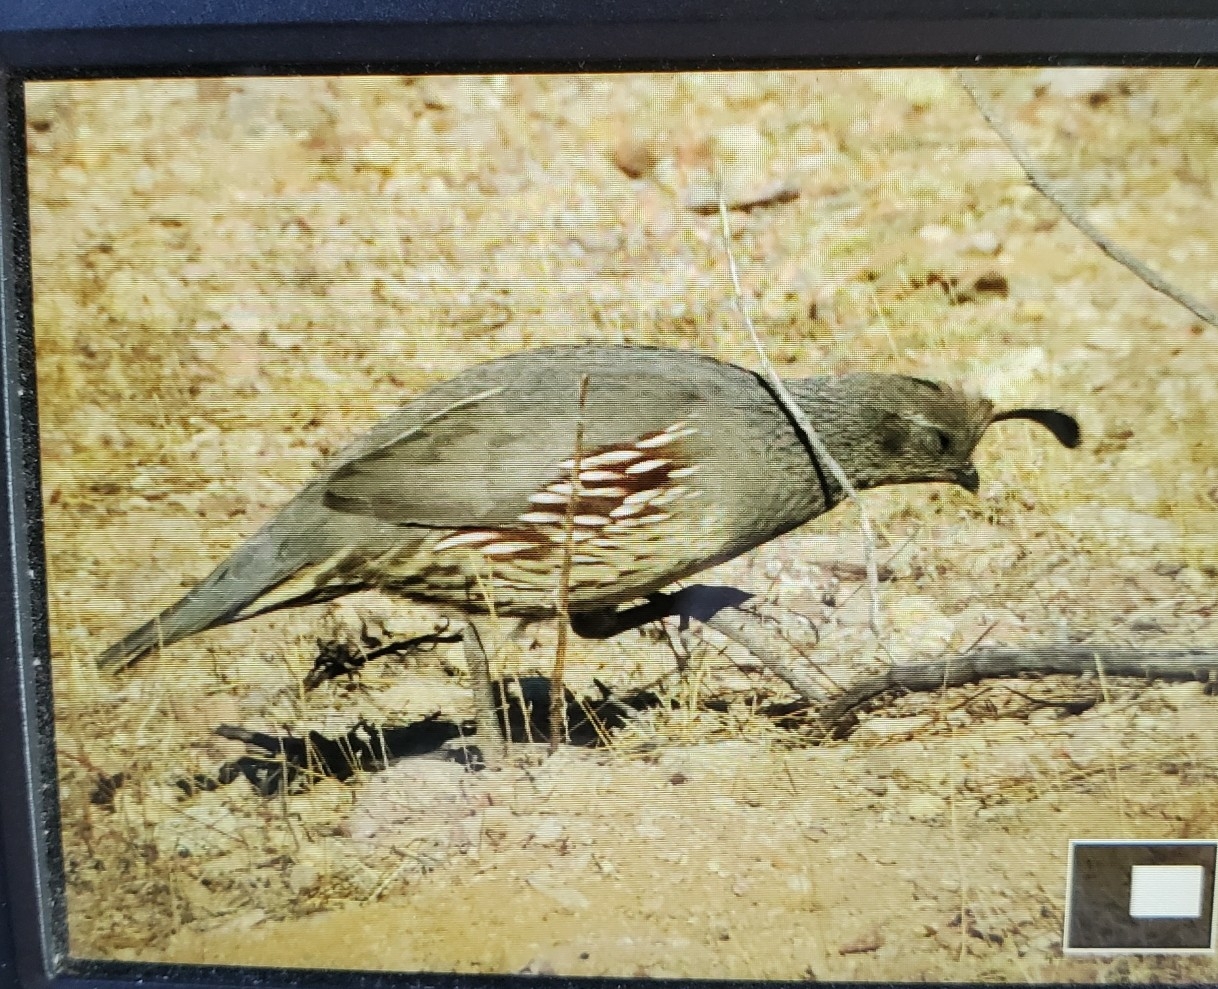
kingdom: Animalia
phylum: Chordata
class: Aves
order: Galliformes
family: Odontophoridae
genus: Callipepla
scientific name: Callipepla gambelii
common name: Gambel's quail
